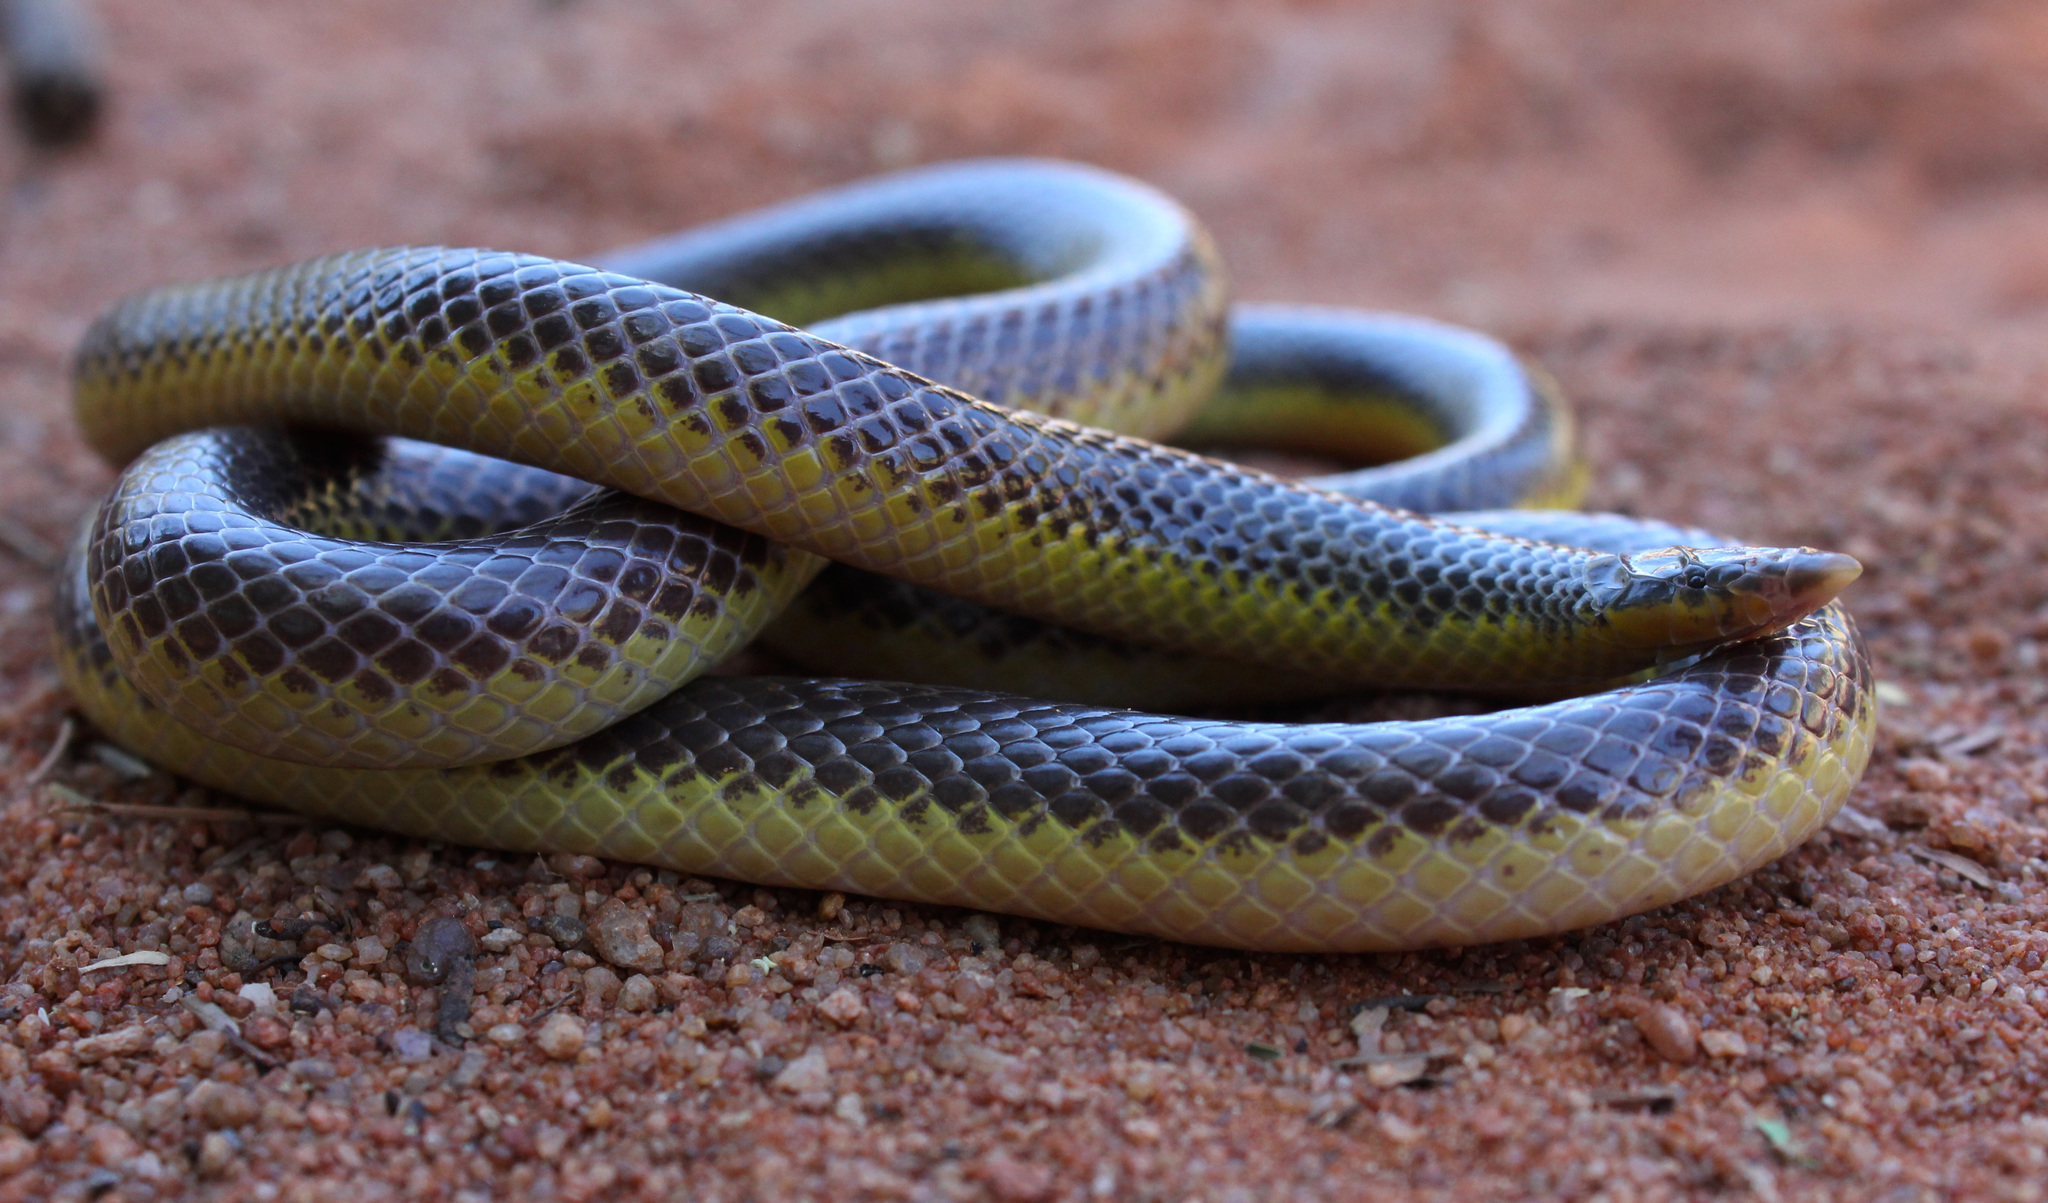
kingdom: Animalia
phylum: Chordata
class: Squamata
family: Atractaspididae
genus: Xenocalamus
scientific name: Xenocalamus bicolor
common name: Bicoloured quill-snouted snake
